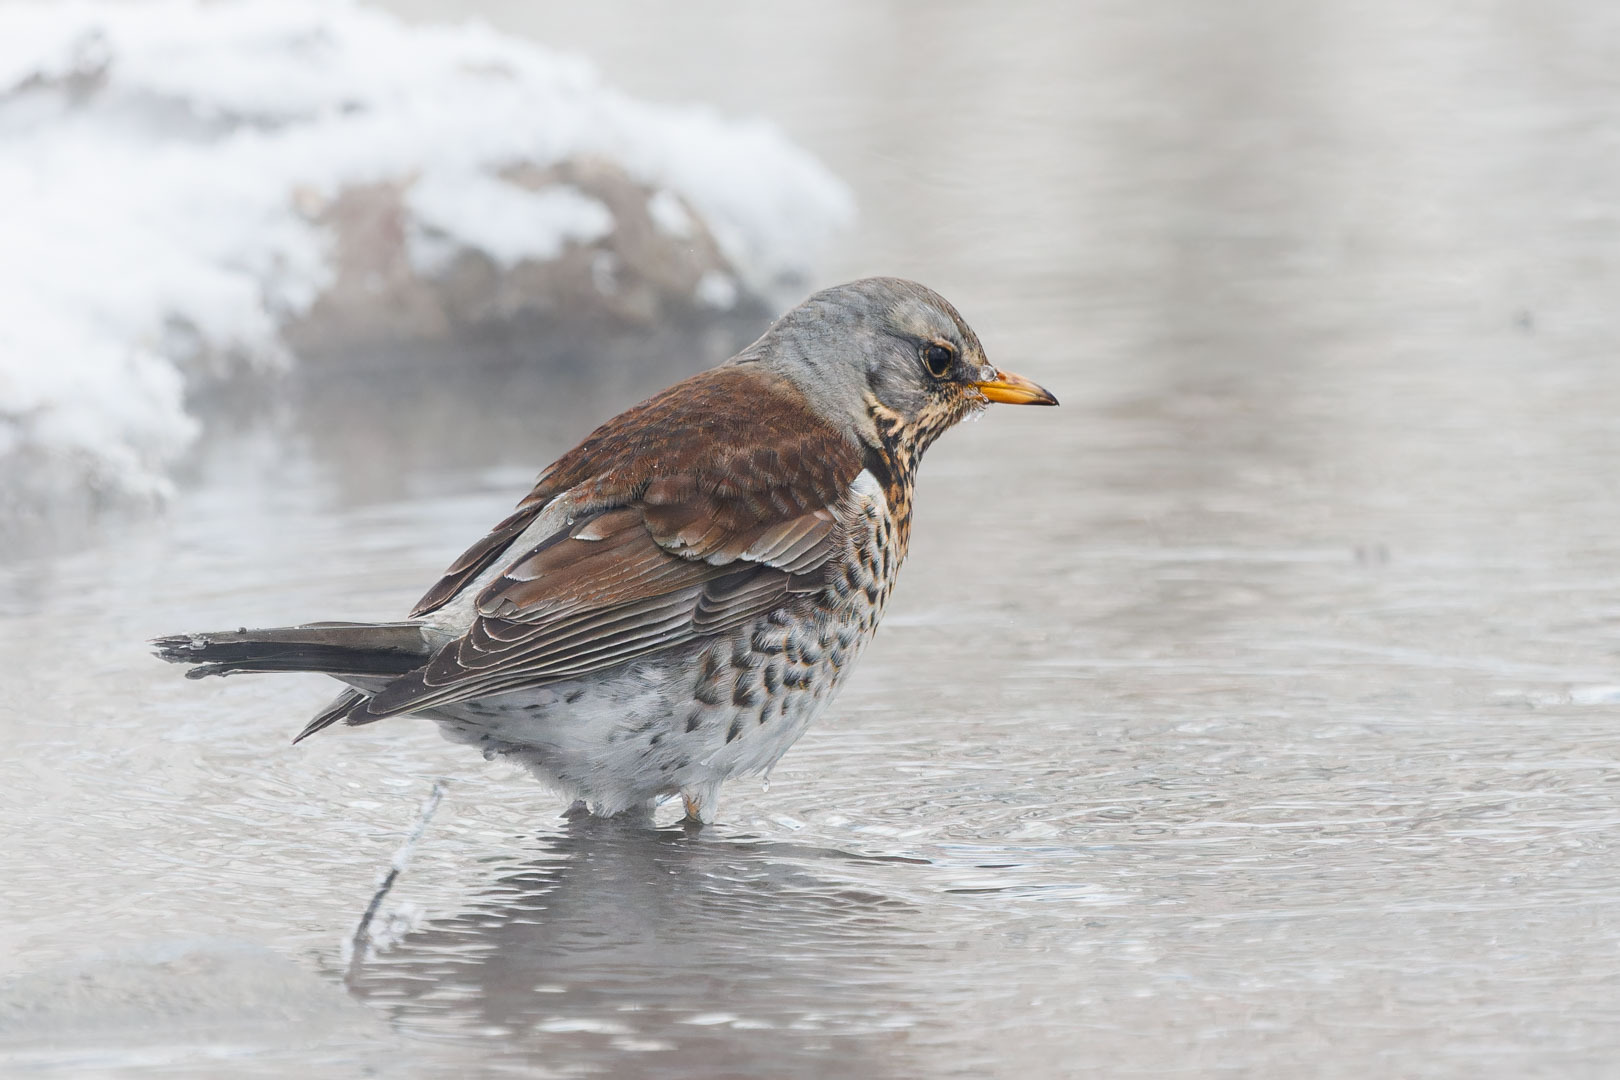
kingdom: Animalia
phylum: Chordata
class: Aves
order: Passeriformes
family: Turdidae
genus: Turdus
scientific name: Turdus pilaris
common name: Fieldfare
